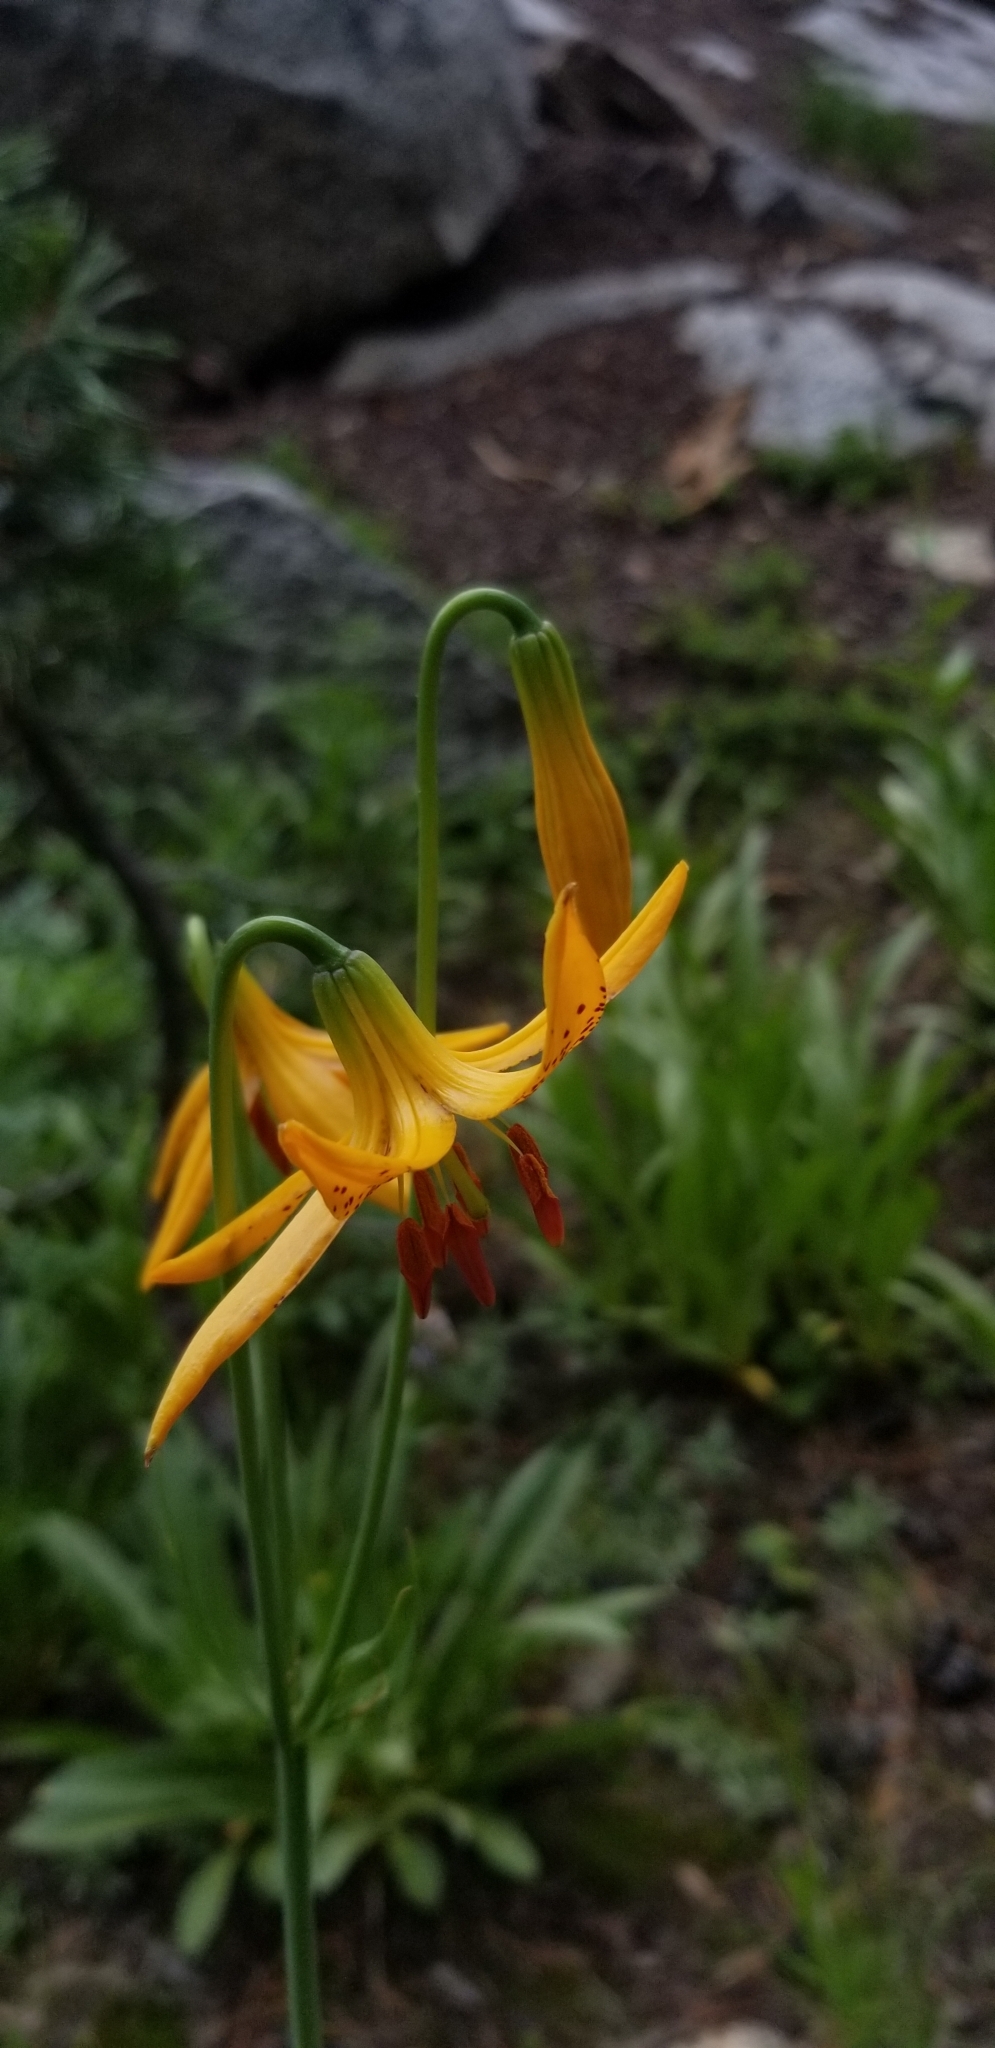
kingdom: Plantae
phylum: Tracheophyta
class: Liliopsida
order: Liliales
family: Liliaceae
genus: Lilium
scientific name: Lilium kelleyanum
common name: Kelley's lily
